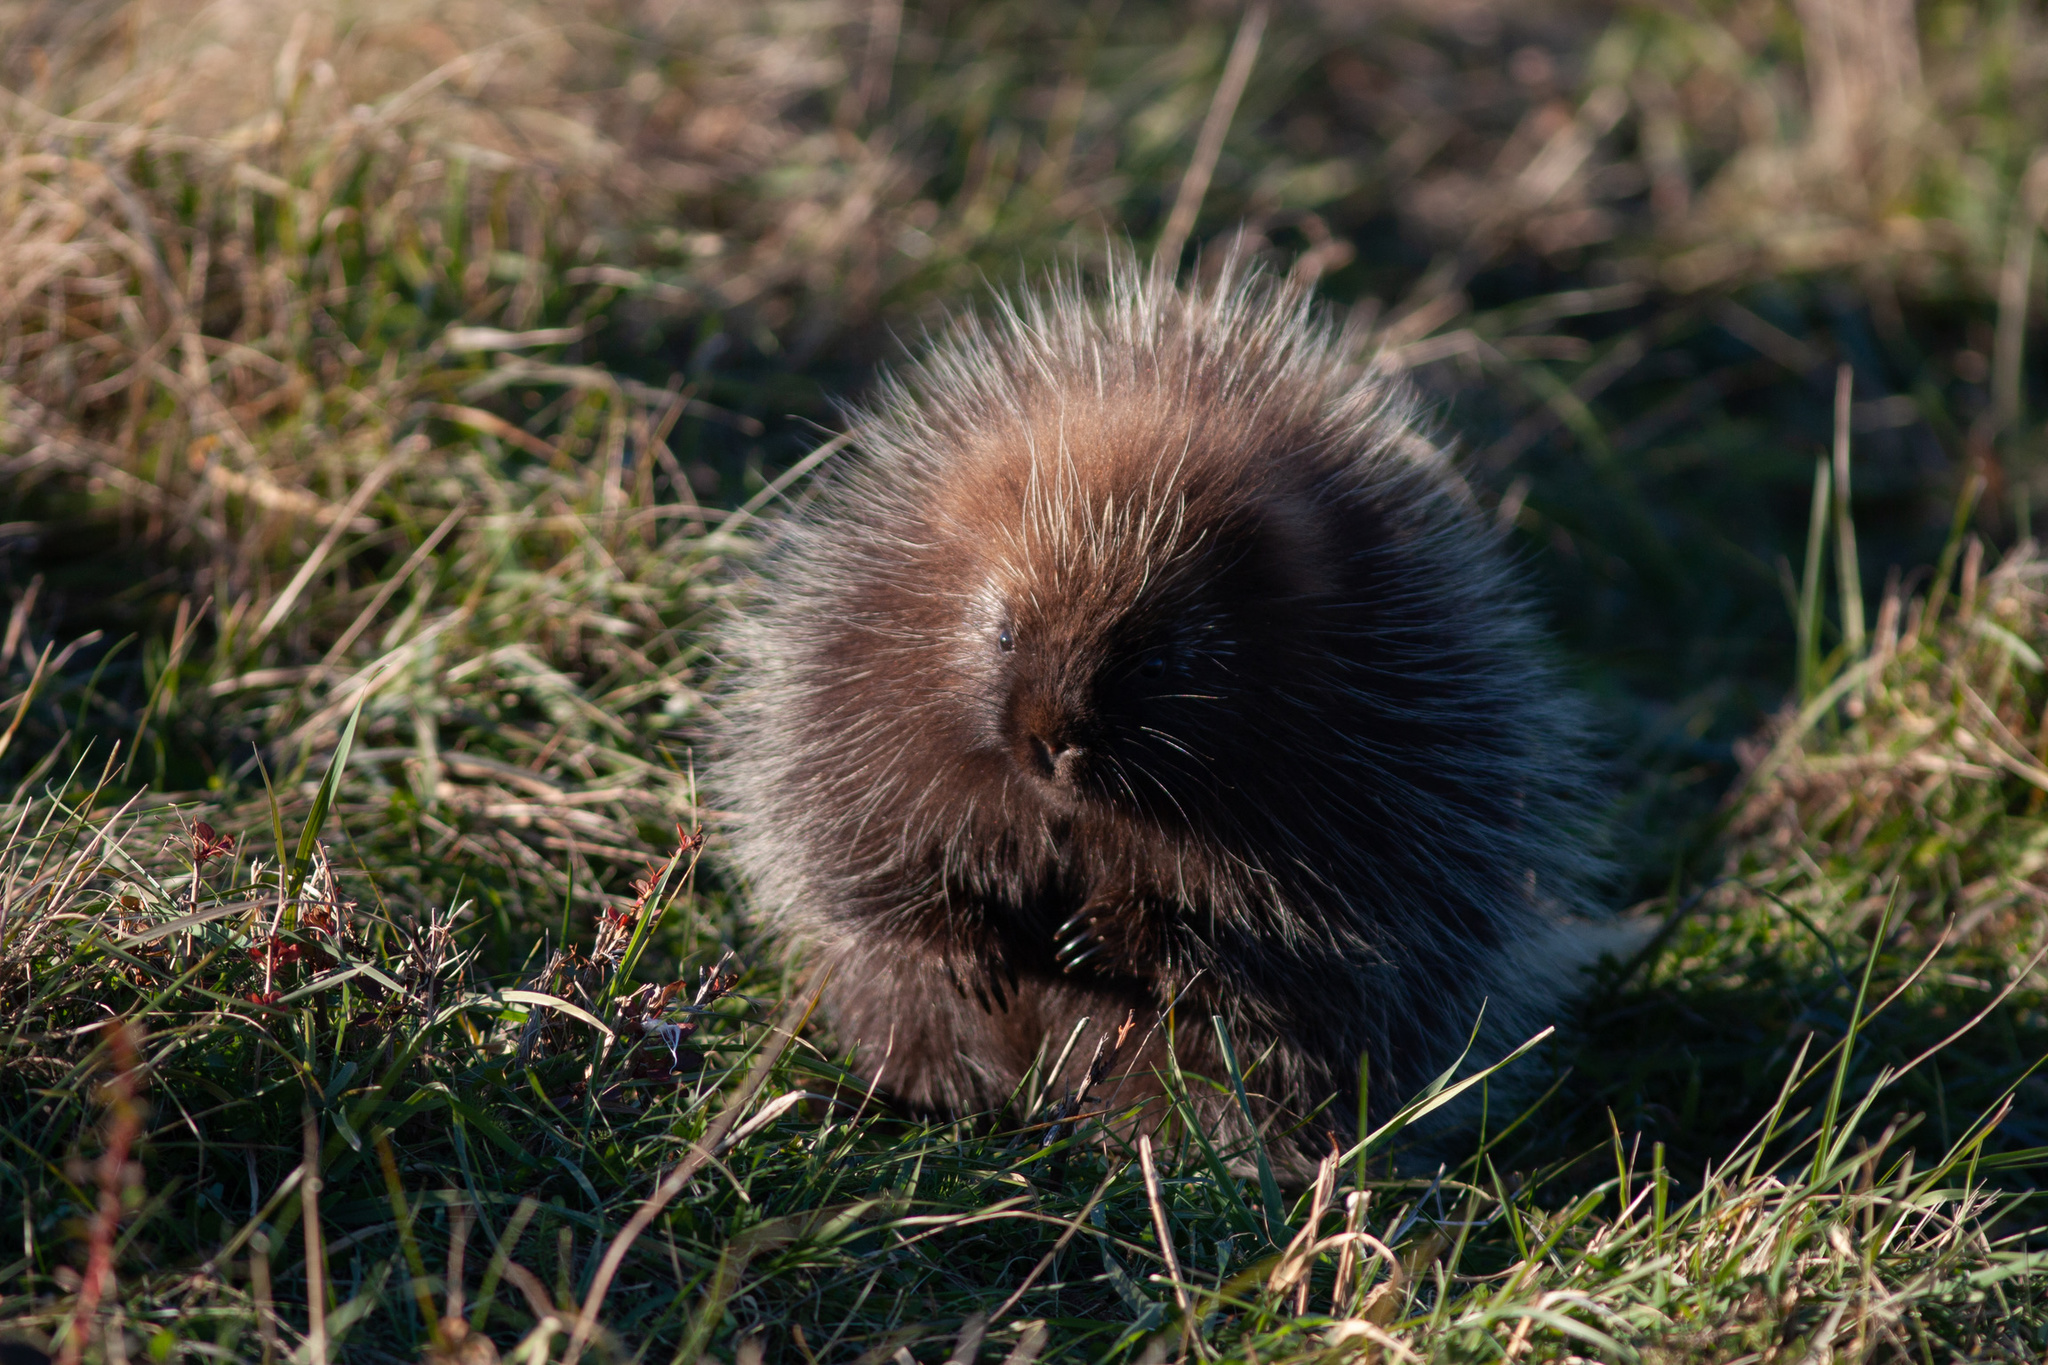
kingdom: Animalia
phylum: Chordata
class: Mammalia
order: Rodentia
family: Erethizontidae
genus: Erethizon
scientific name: Erethizon dorsatus
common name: North american porcupine
